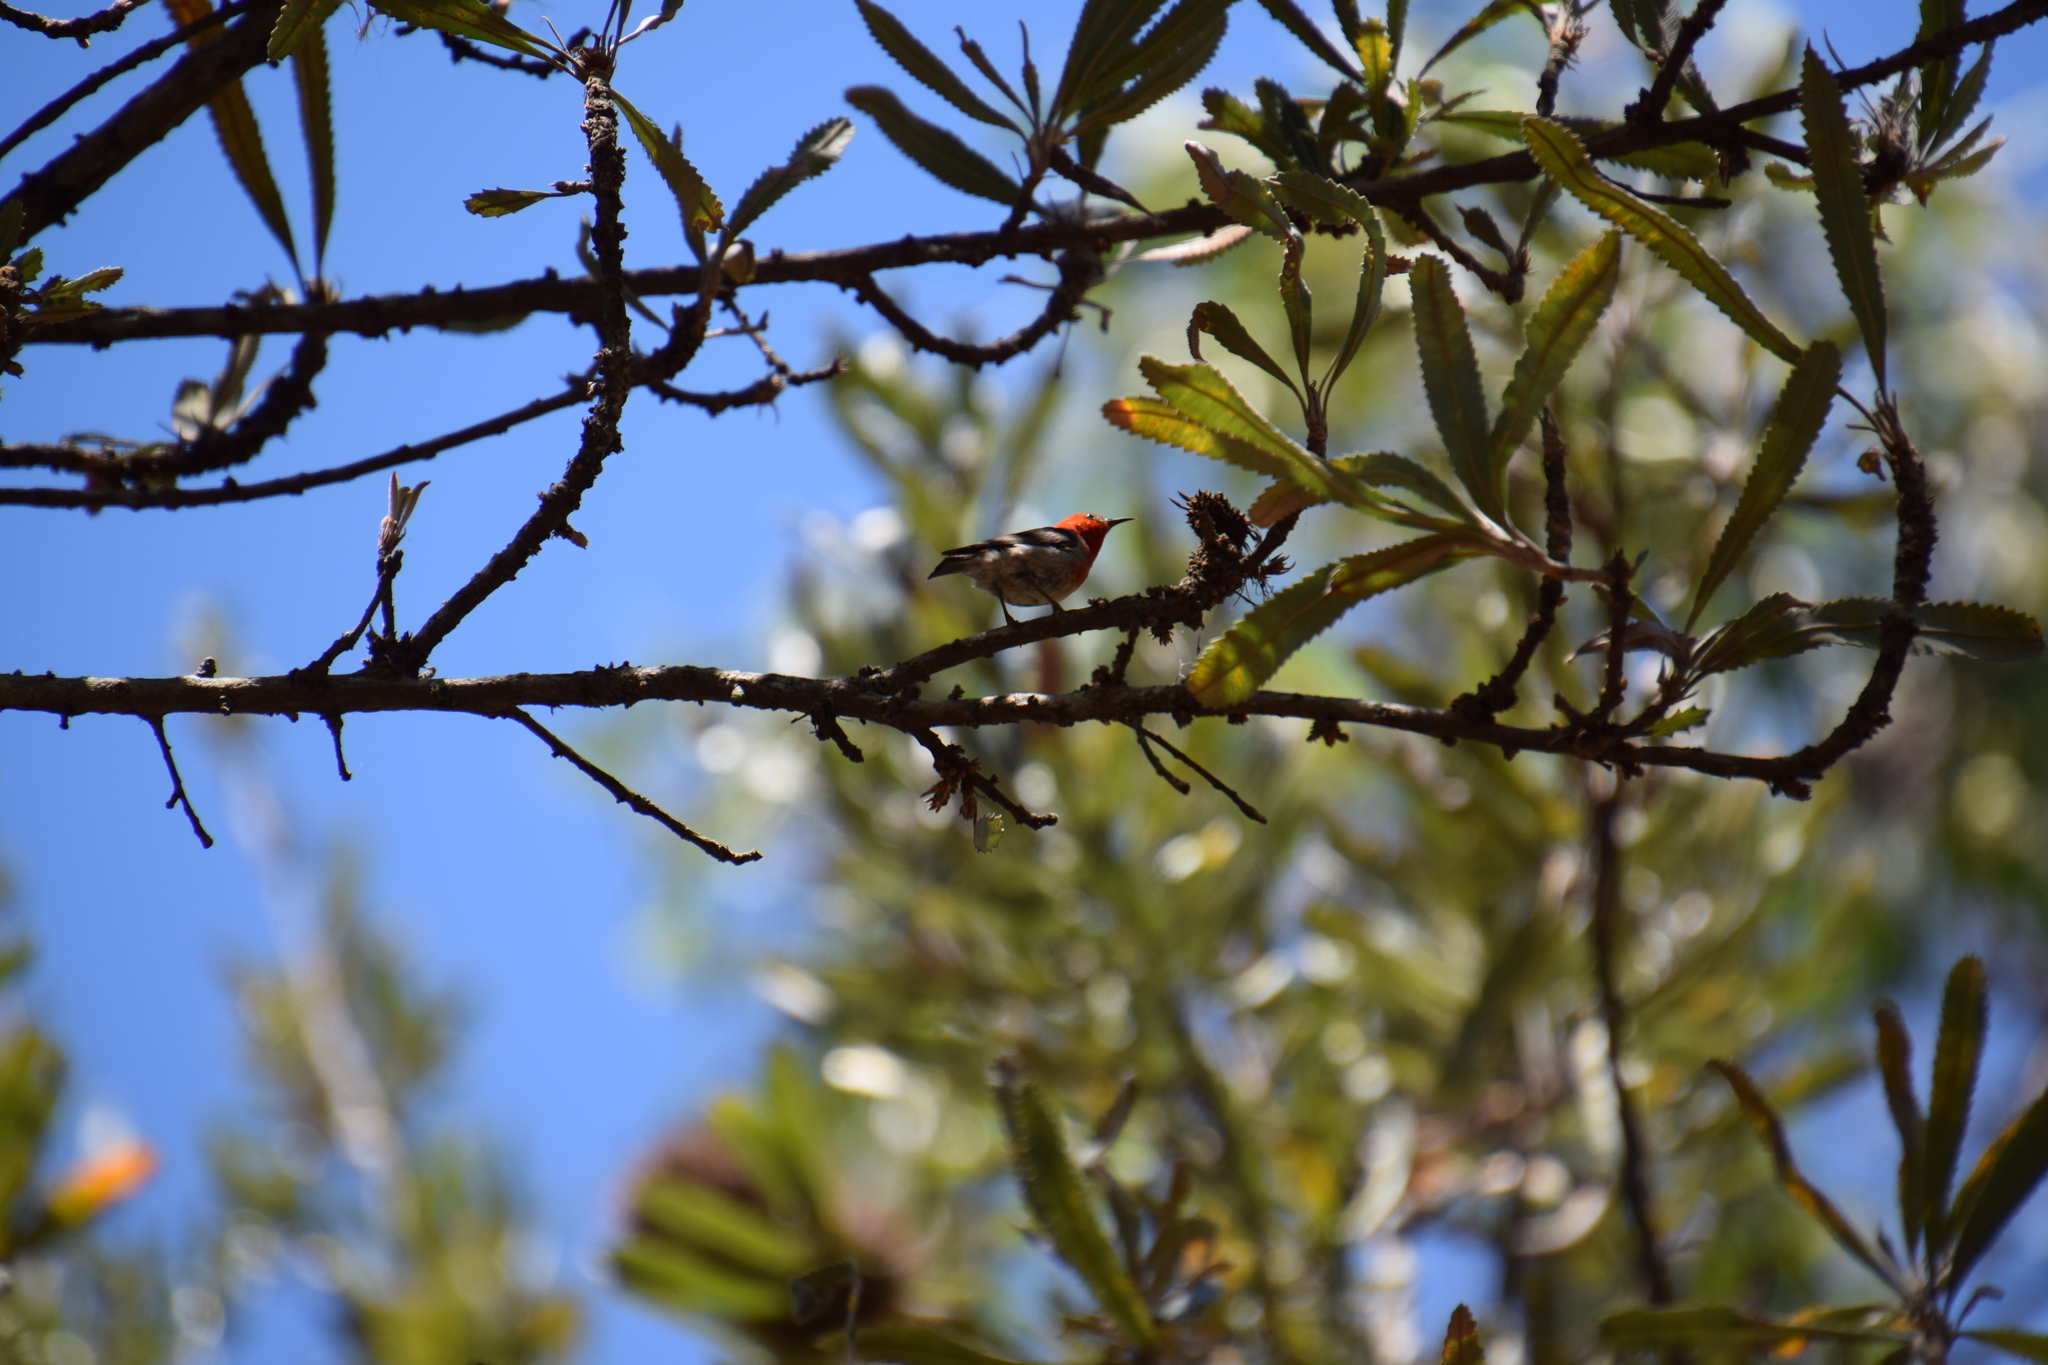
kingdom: Animalia
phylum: Chordata
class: Aves
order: Passeriformes
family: Meliphagidae
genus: Myzomela
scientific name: Myzomela sanguinolenta
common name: Scarlet myzomela
